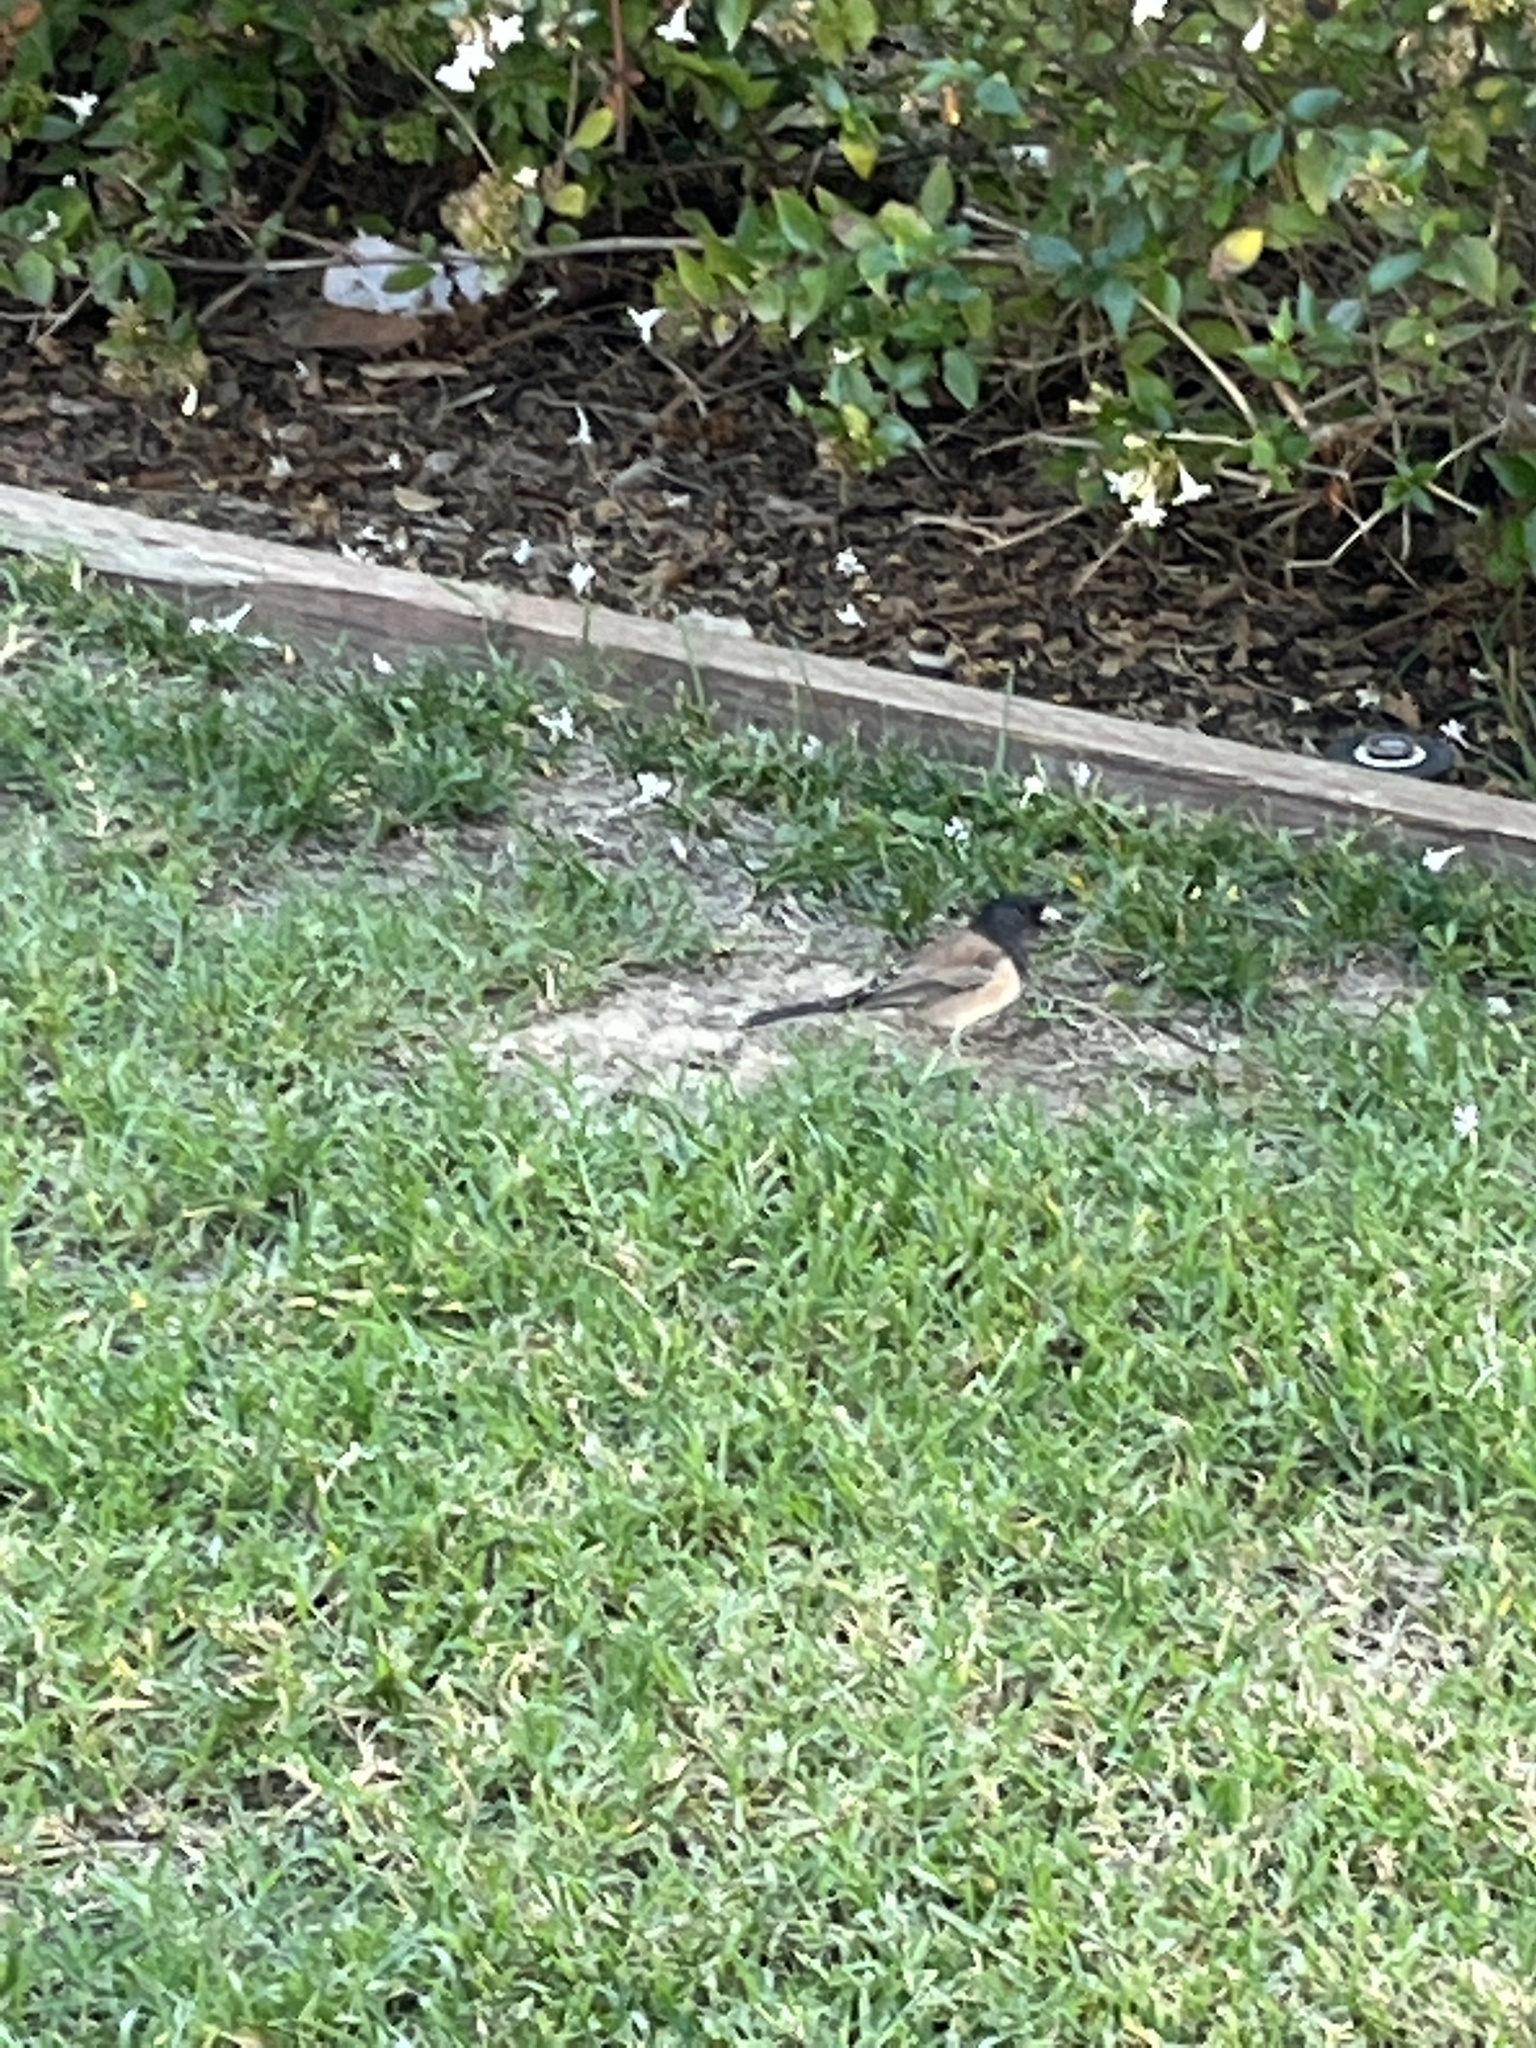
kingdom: Animalia
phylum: Chordata
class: Aves
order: Passeriformes
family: Passerellidae
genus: Junco
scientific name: Junco hyemalis
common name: Dark-eyed junco
